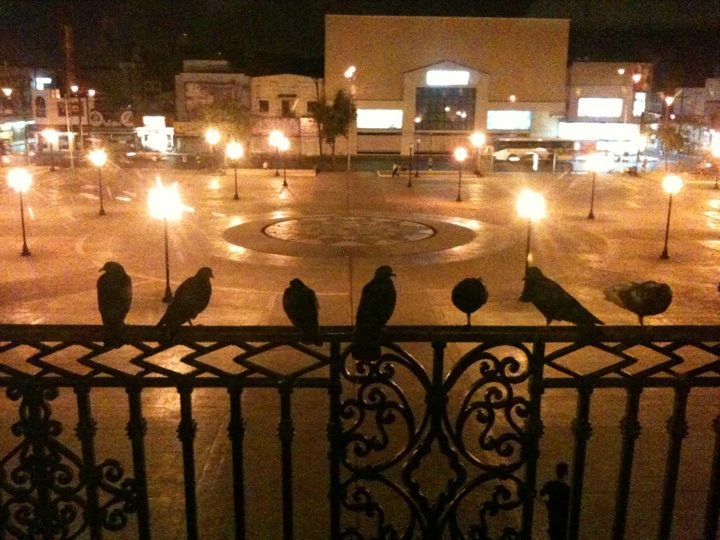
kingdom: Animalia
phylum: Chordata
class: Aves
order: Columbiformes
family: Columbidae
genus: Columba
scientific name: Columba livia
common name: Rock pigeon
